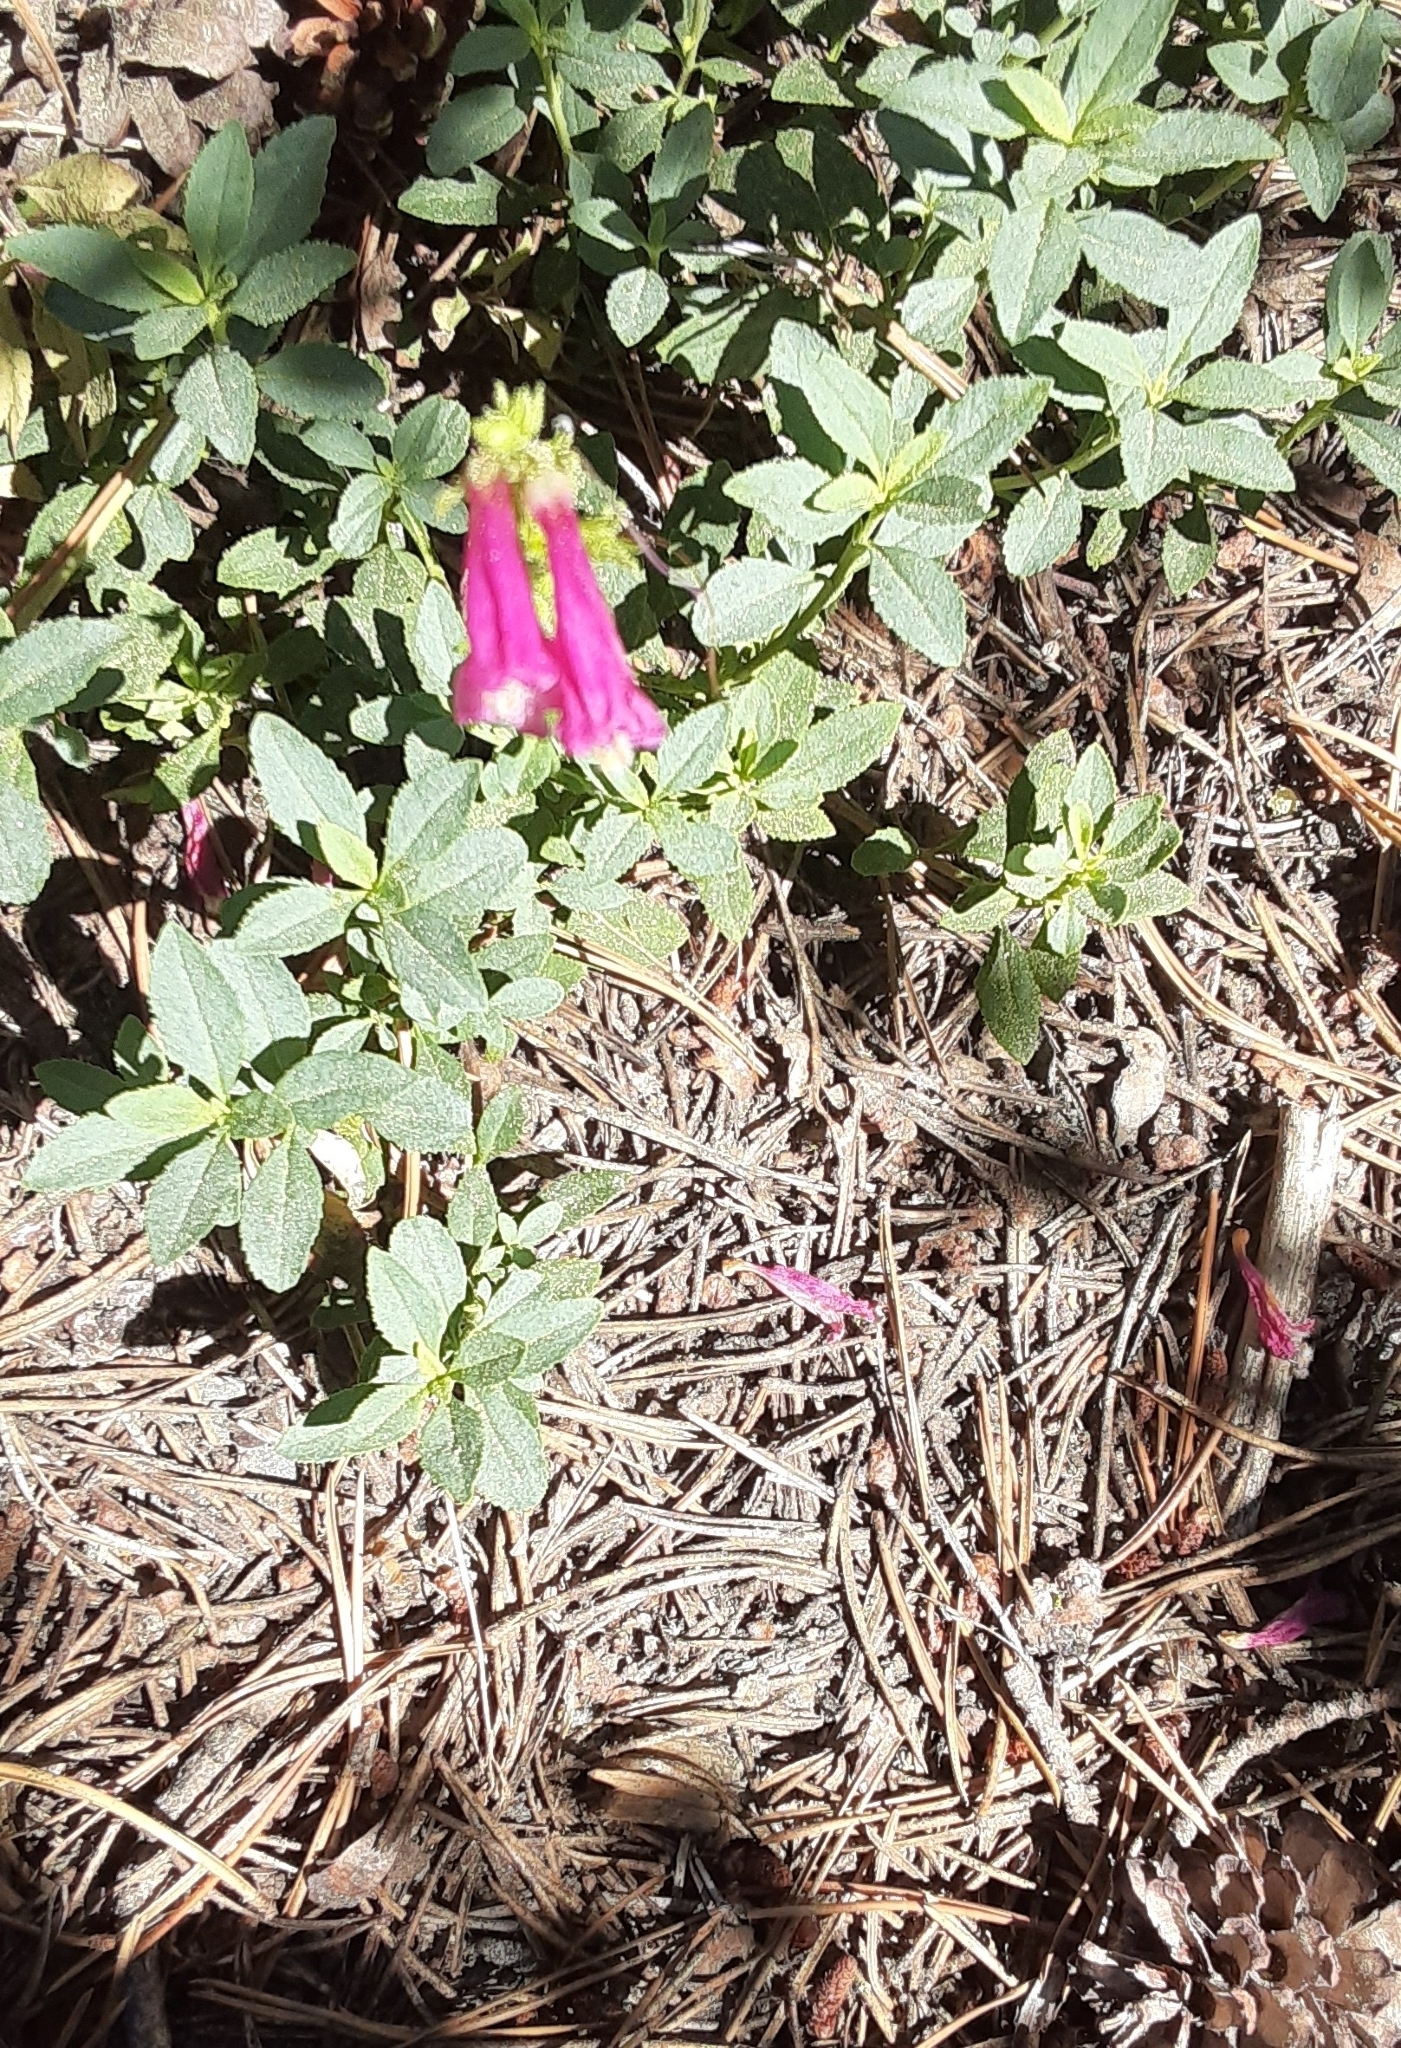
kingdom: Plantae
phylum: Tracheophyta
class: Magnoliopsida
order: Lamiales
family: Plantaginaceae
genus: Penstemon
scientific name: Penstemon newberryi
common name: Mountain-pride
